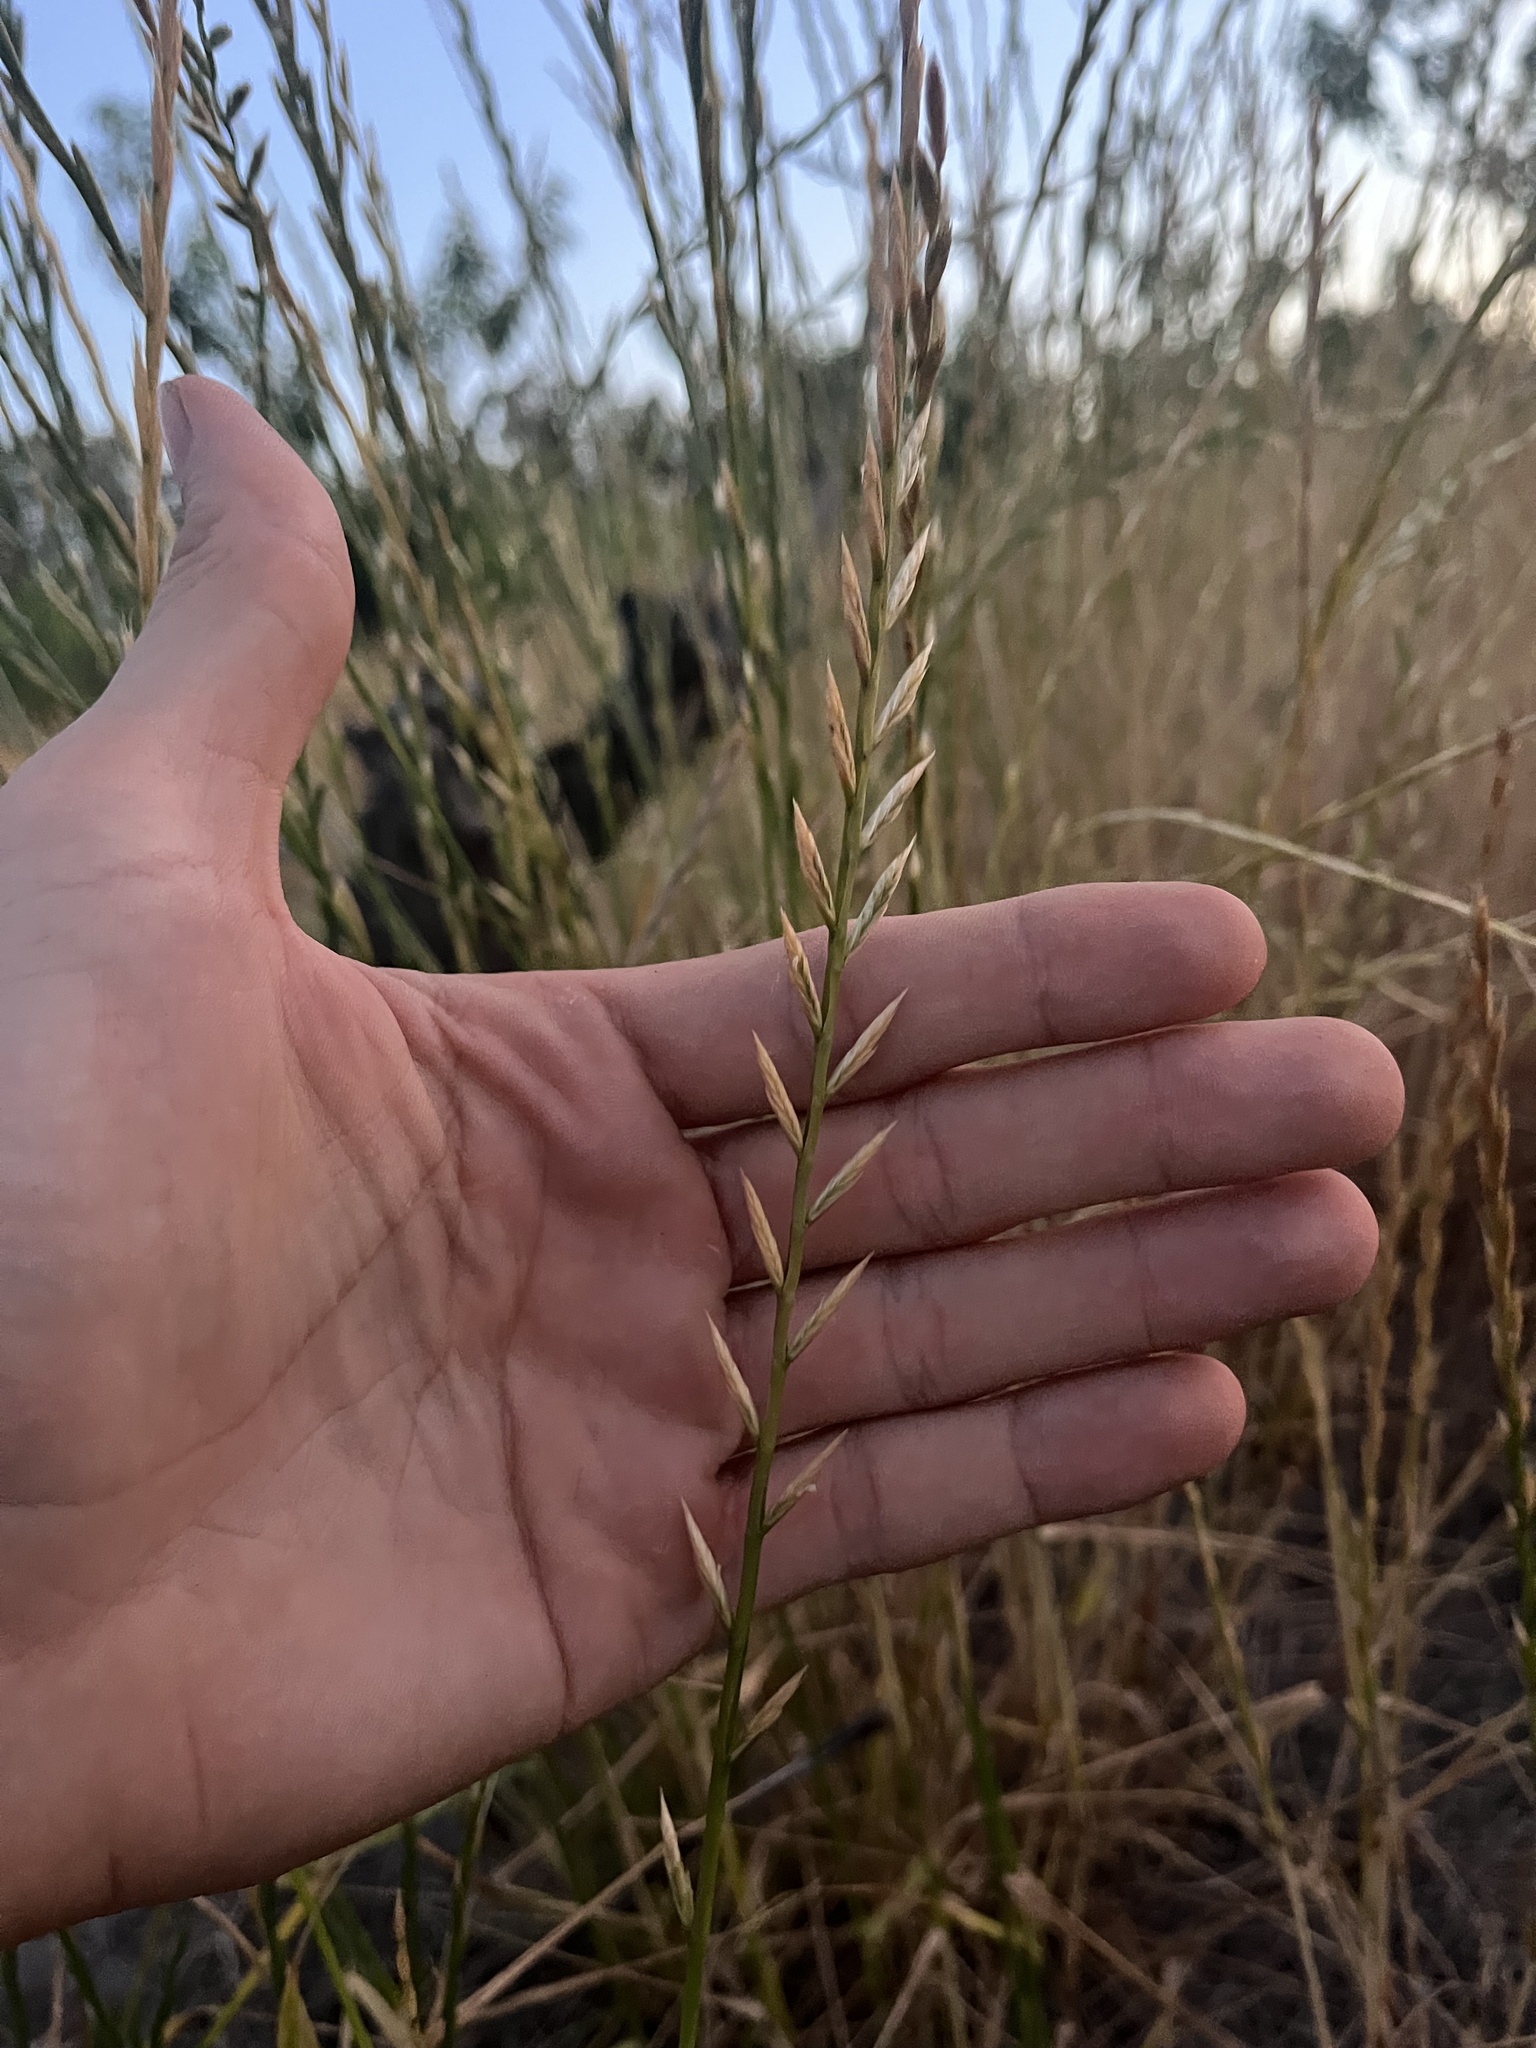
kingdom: Plantae
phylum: Tracheophyta
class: Liliopsida
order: Poales
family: Poaceae
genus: Lolium
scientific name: Lolium multiflorum
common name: Annual ryegrass
